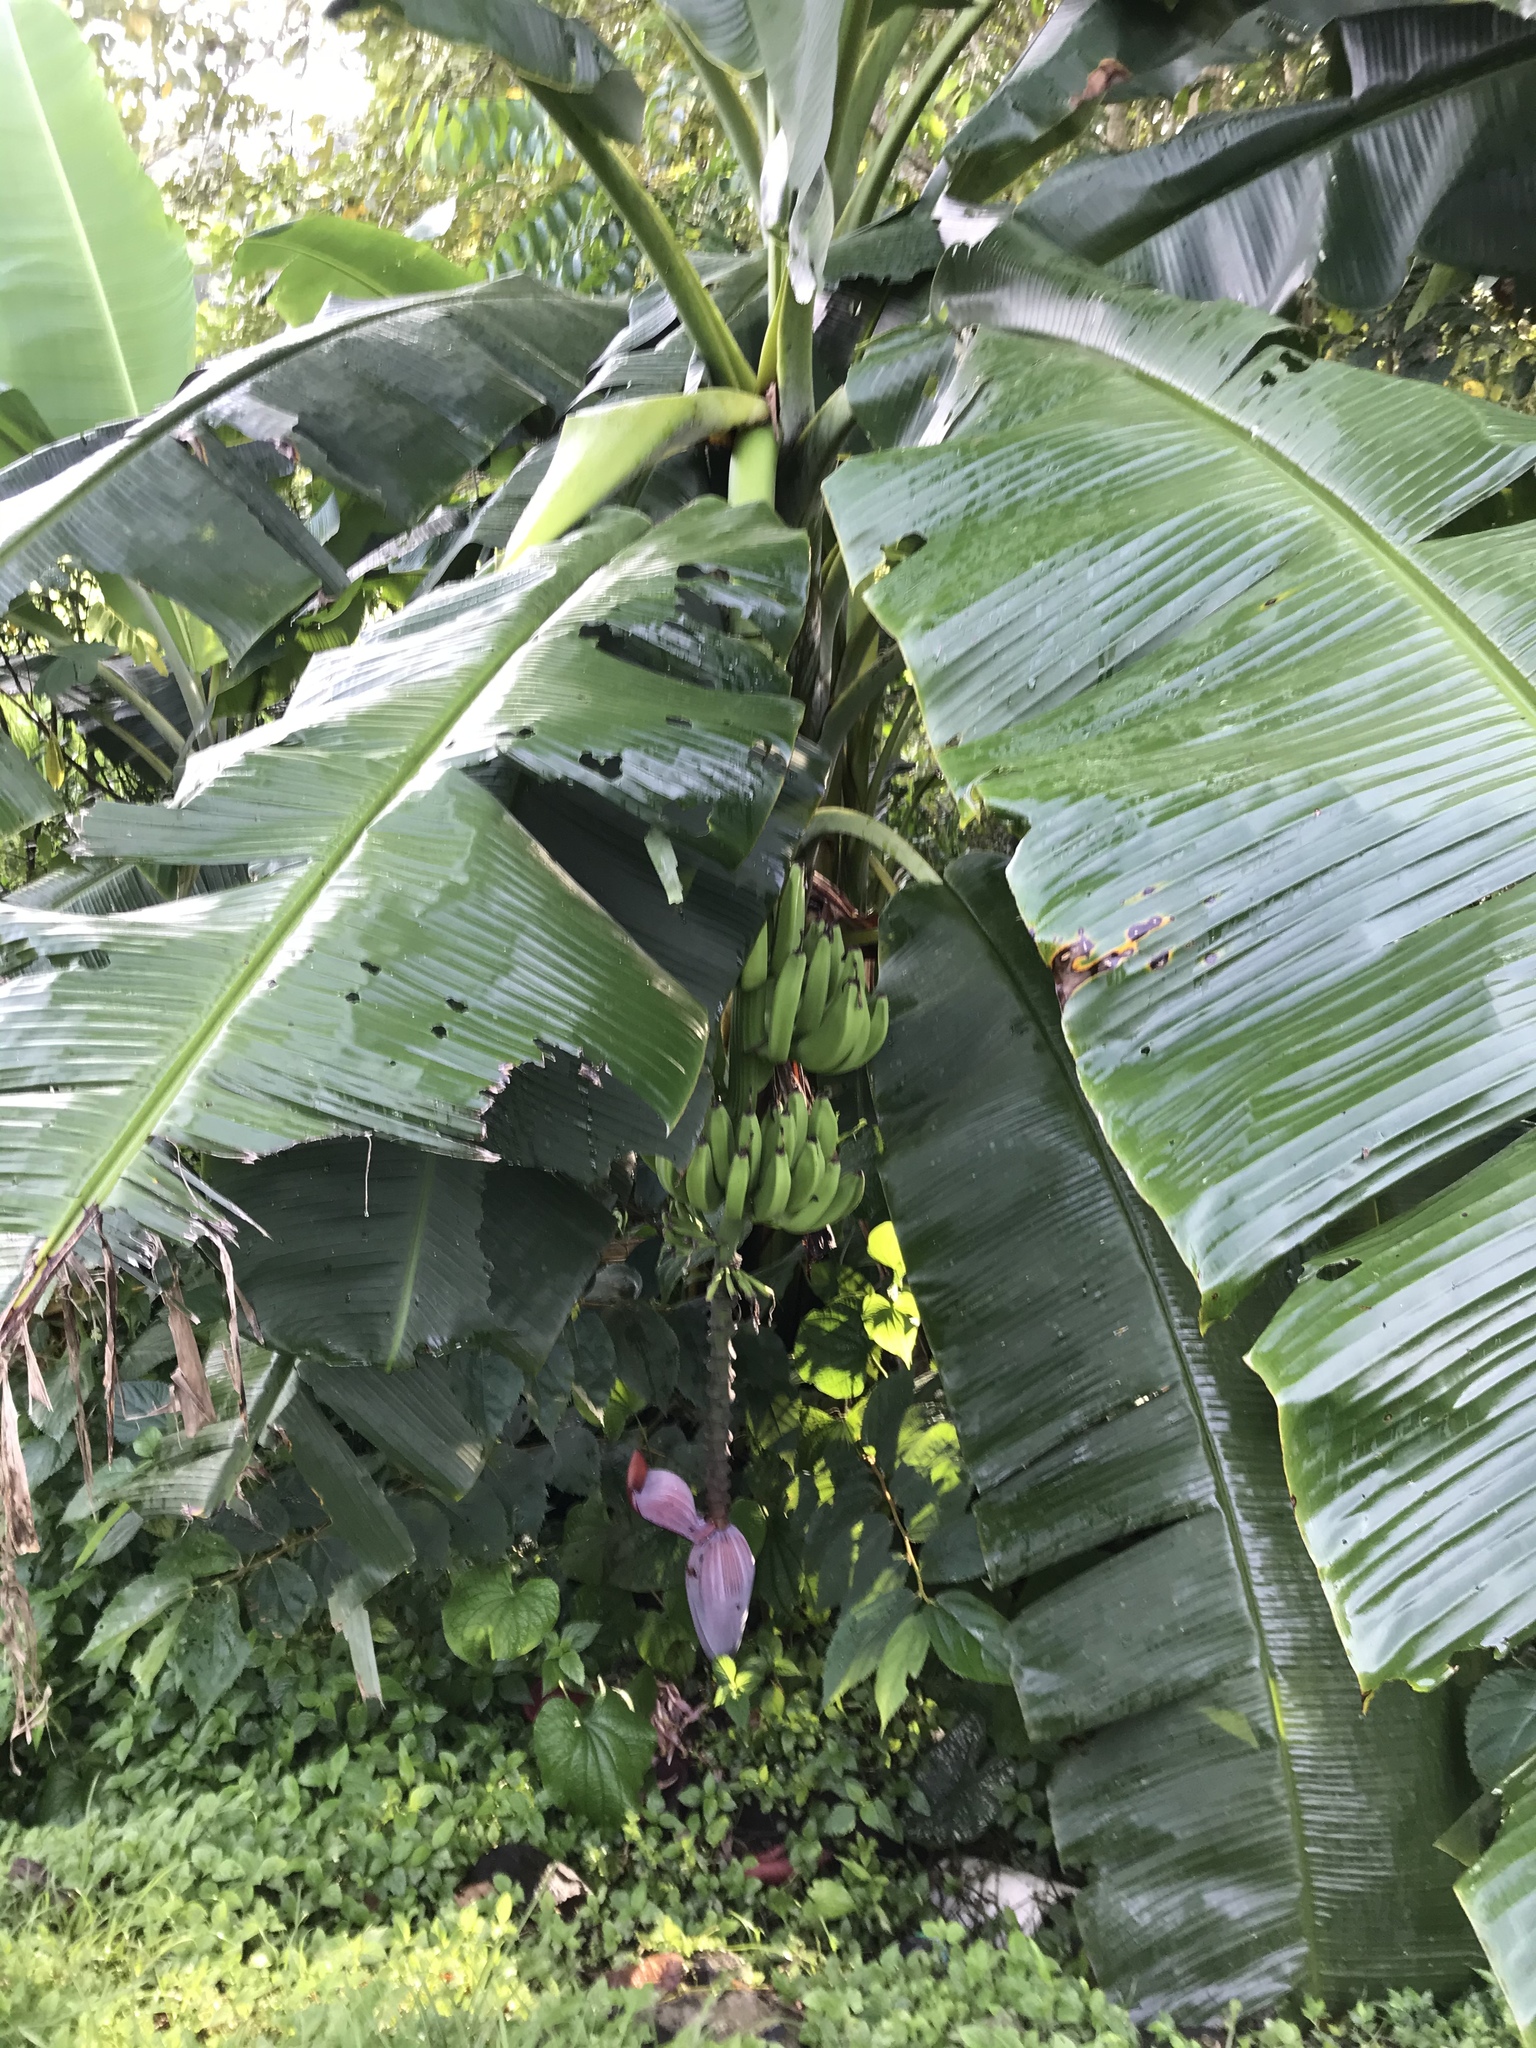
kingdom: Plantae
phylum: Tracheophyta
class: Liliopsida
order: Zingiberales
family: Musaceae
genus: Musa
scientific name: Musa paradisiaca
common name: French plantain
